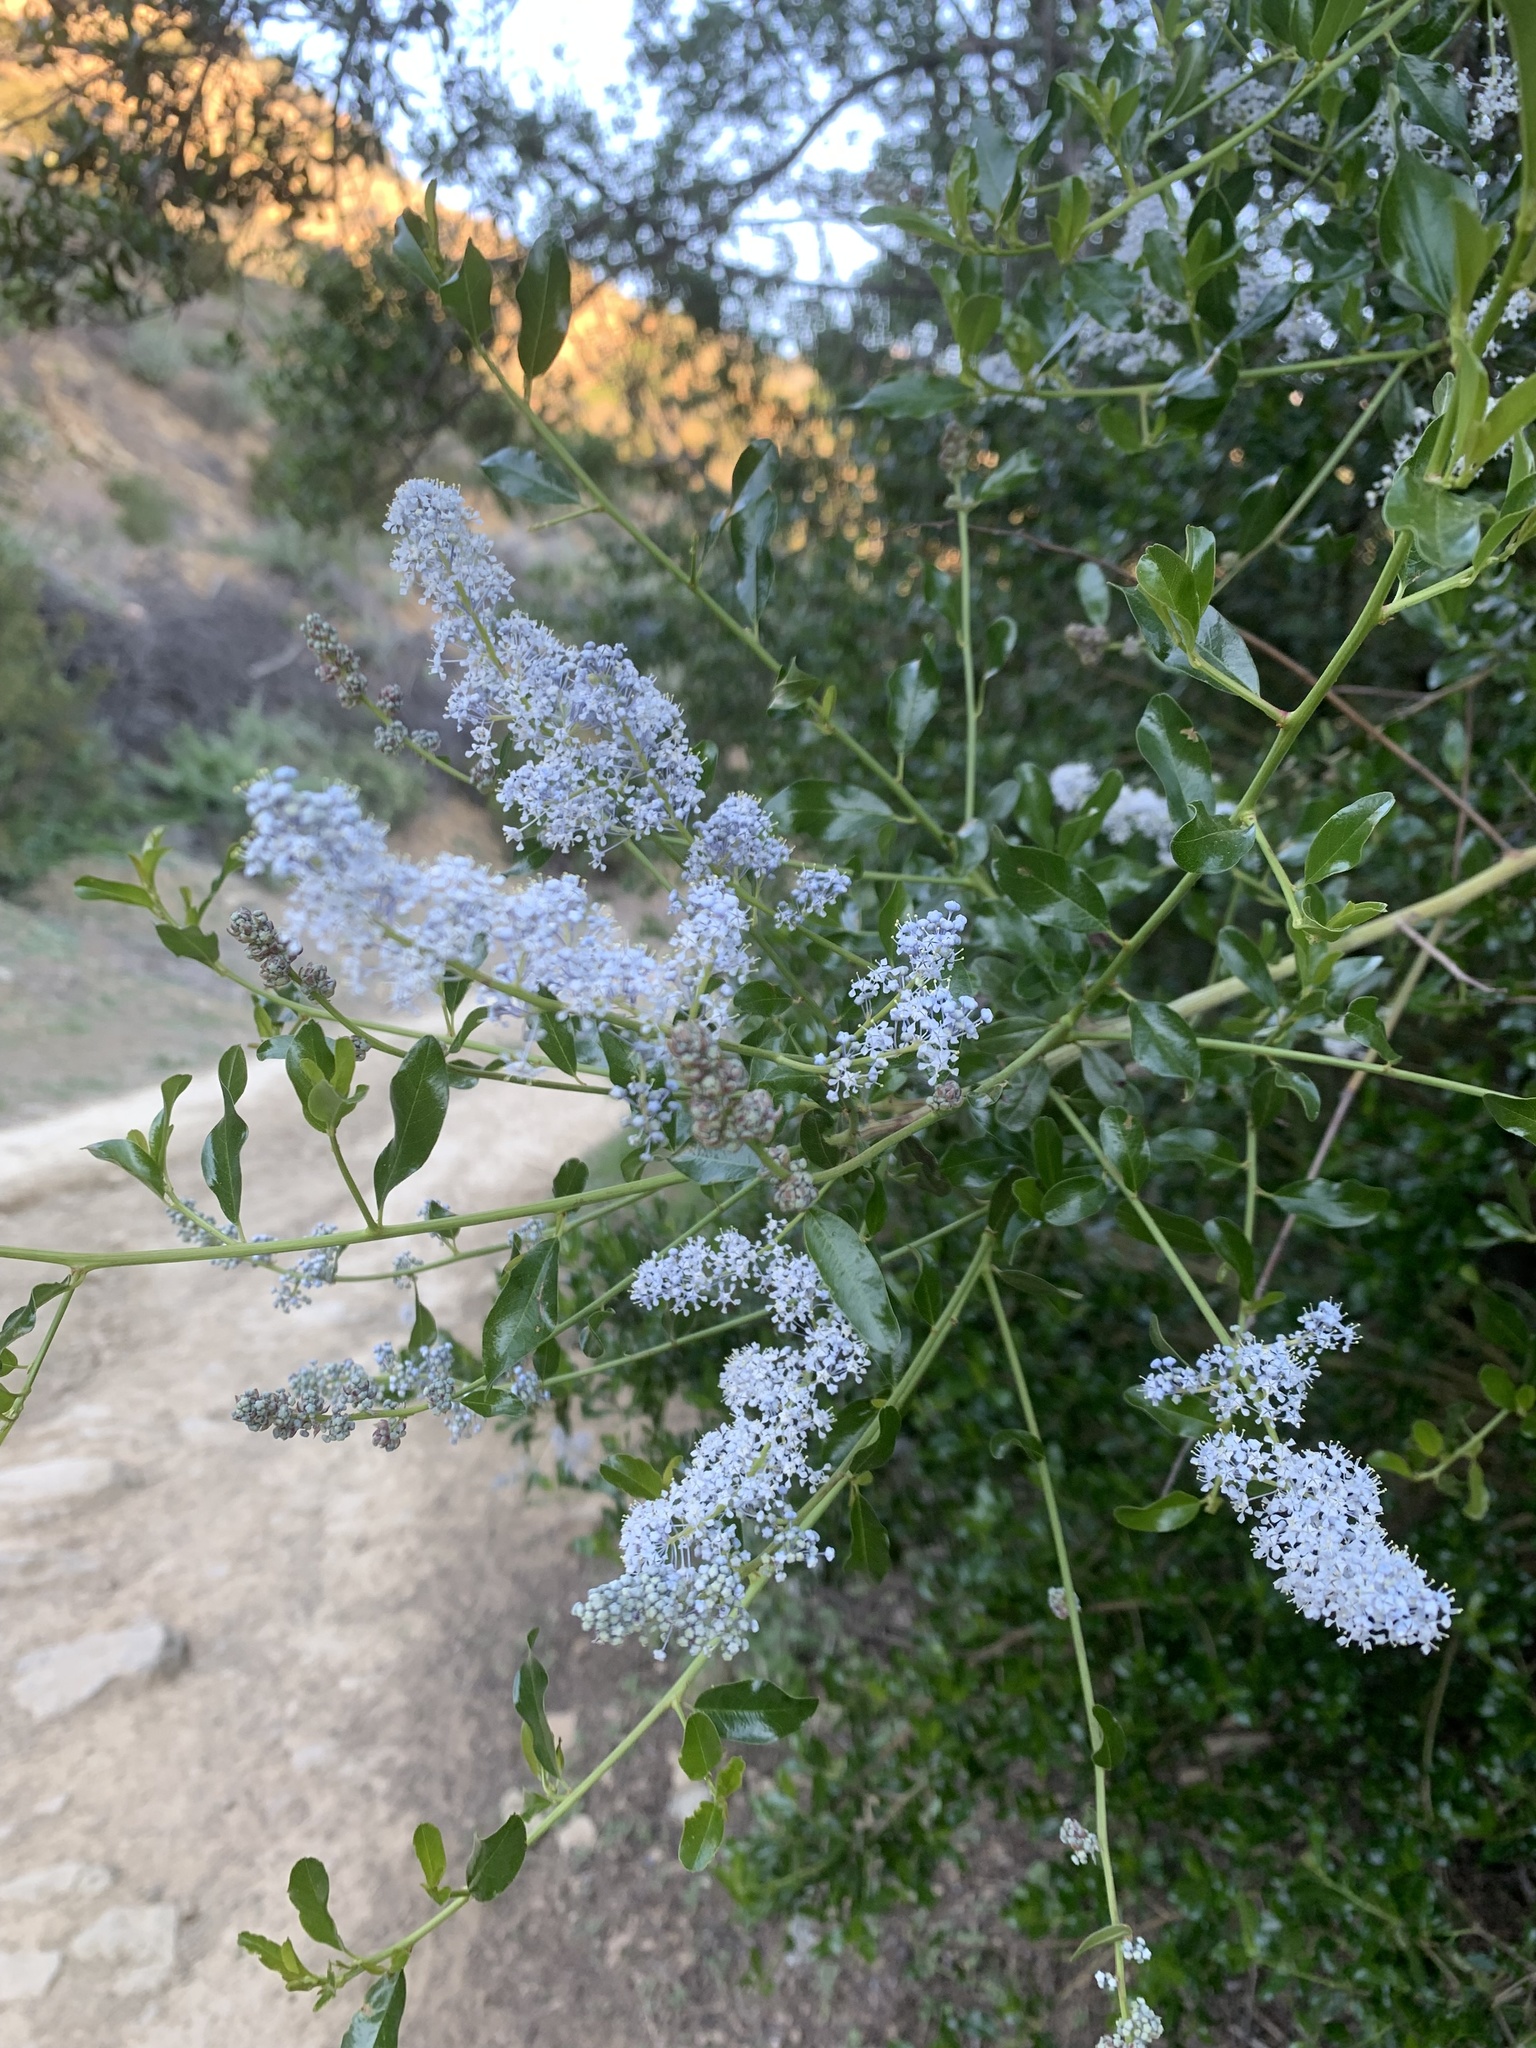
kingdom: Plantae
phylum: Tracheophyta
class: Magnoliopsida
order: Rosales
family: Rhamnaceae
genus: Ceanothus
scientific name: Ceanothus spinosus
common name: Greenbark whitethorn
